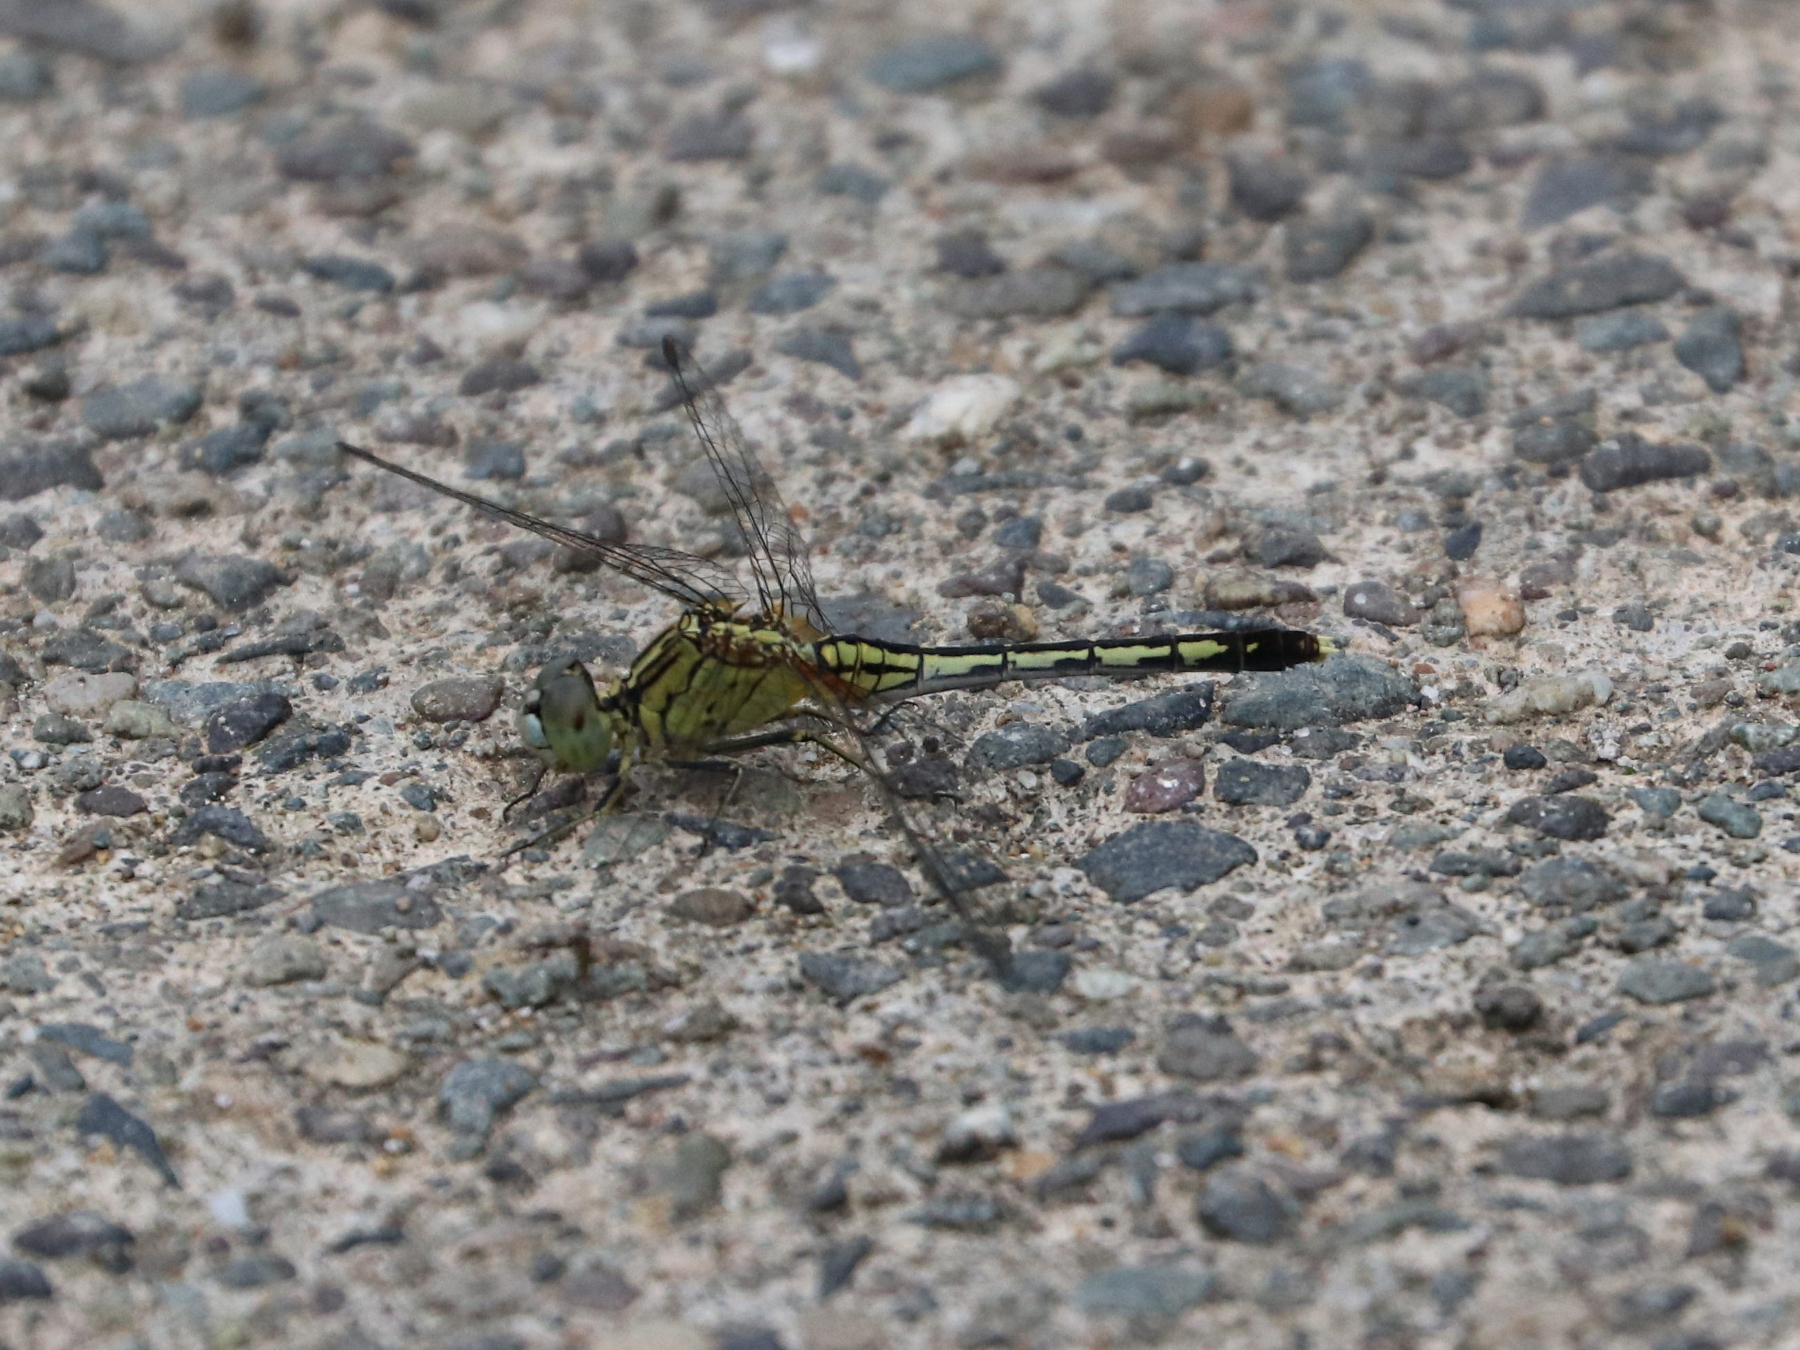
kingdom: Animalia
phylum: Arthropoda
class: Insecta
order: Odonata
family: Libellulidae
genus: Diplacodes
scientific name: Diplacodes trivialis
